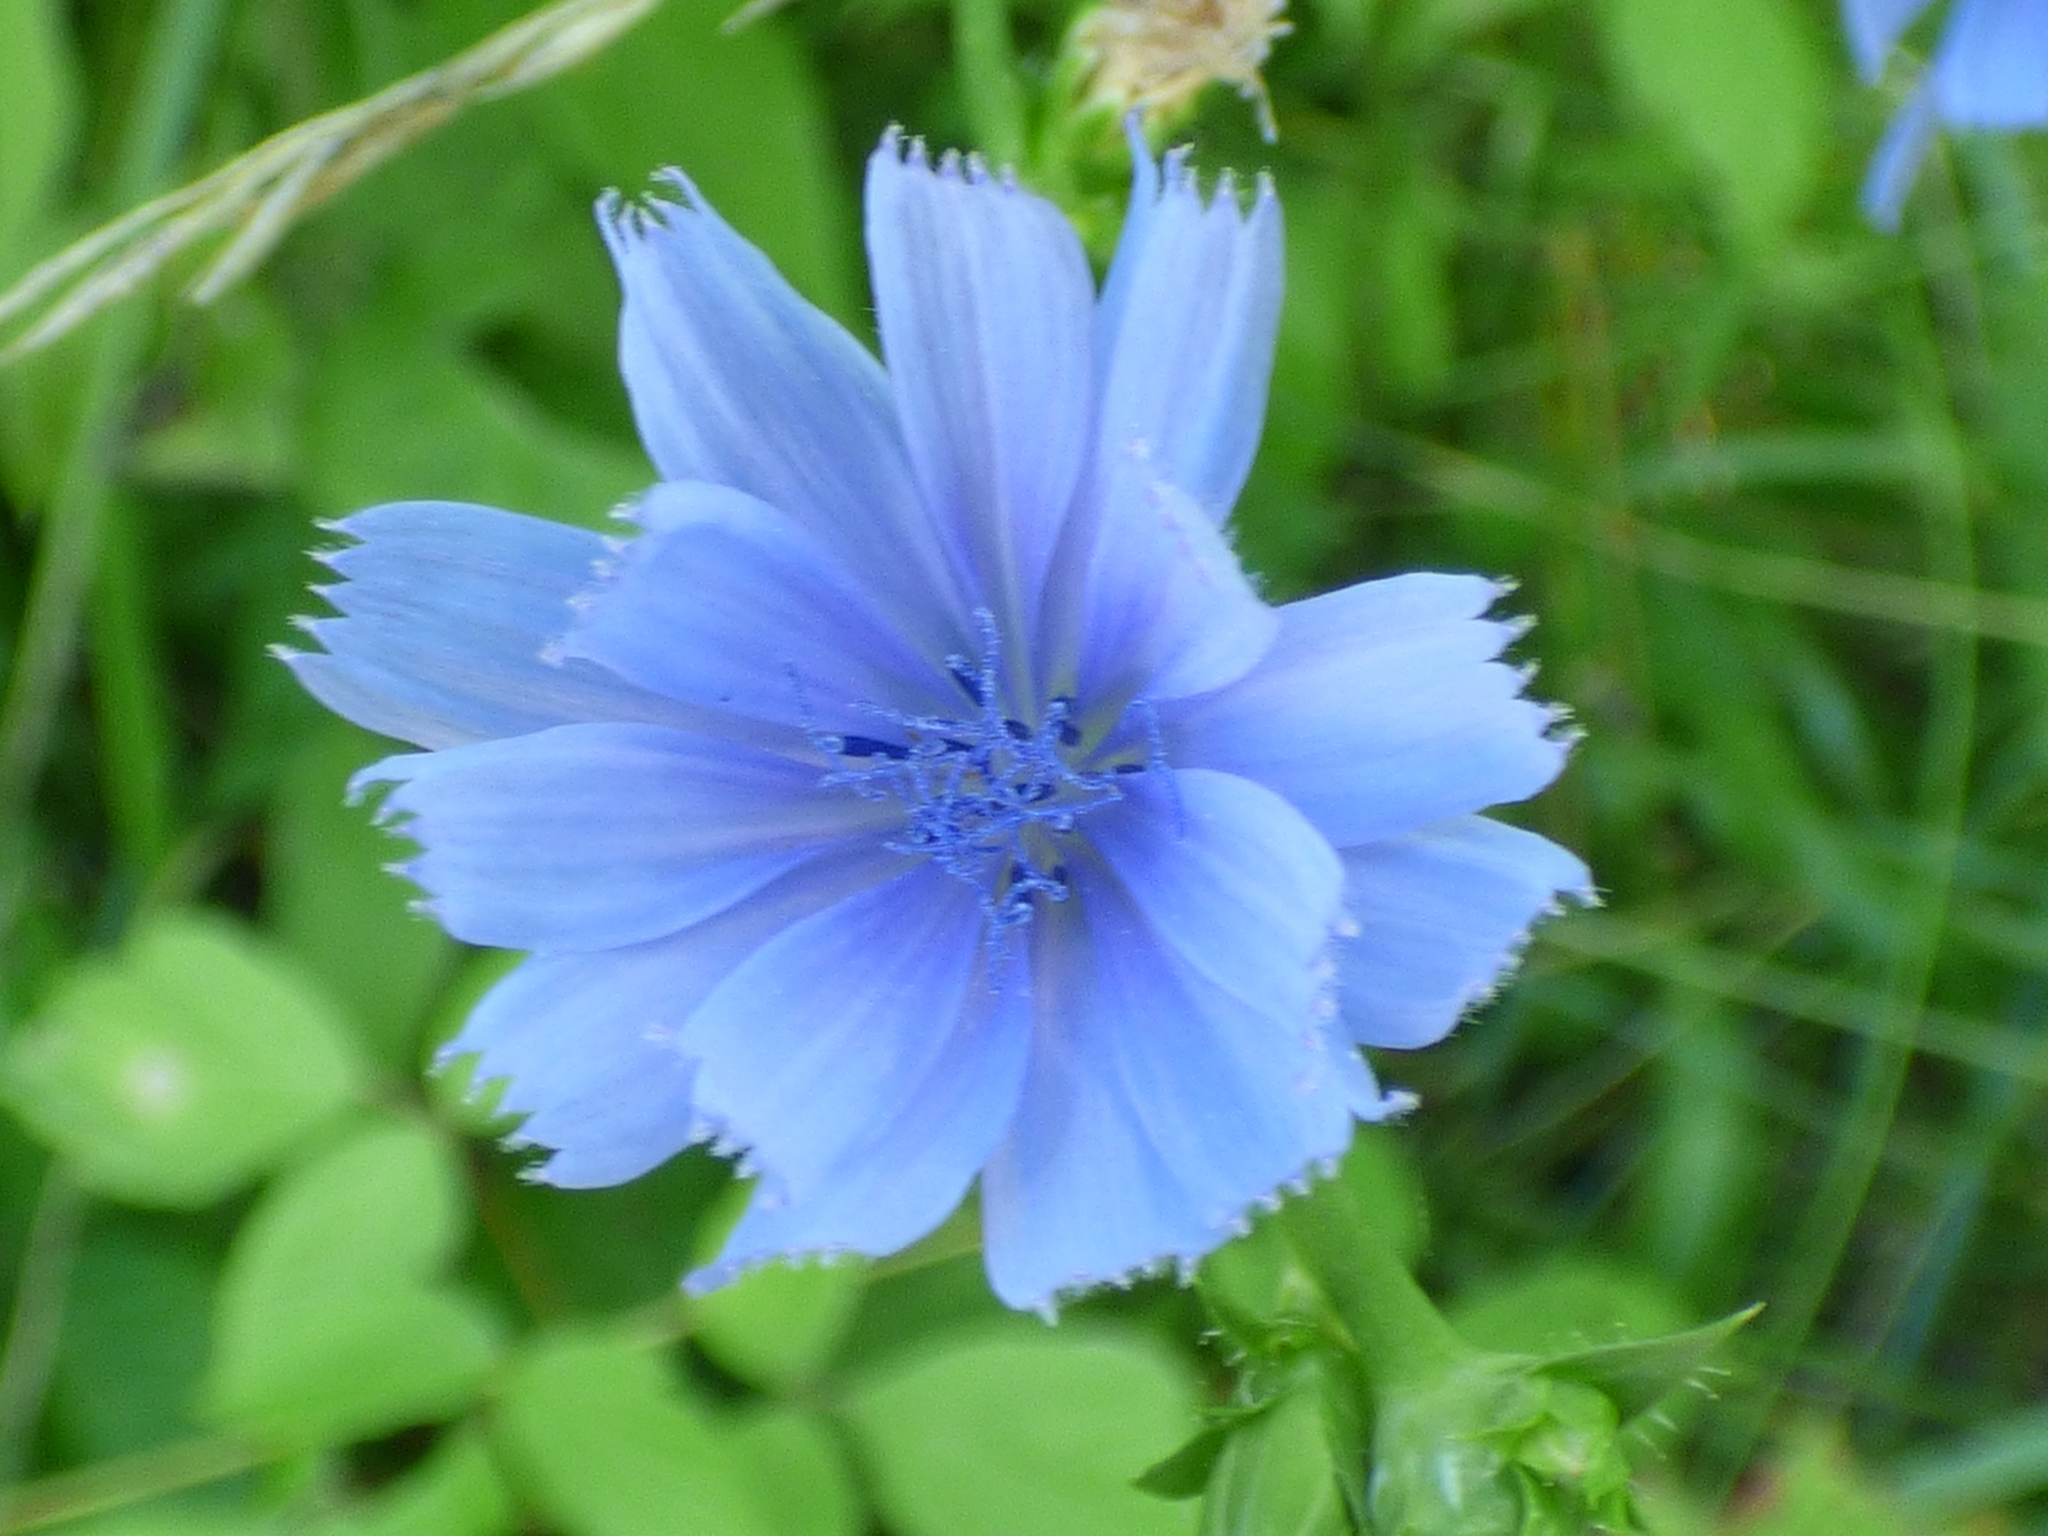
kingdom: Plantae
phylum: Tracheophyta
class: Magnoliopsida
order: Asterales
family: Asteraceae
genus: Cichorium
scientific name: Cichorium intybus
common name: Chicory
